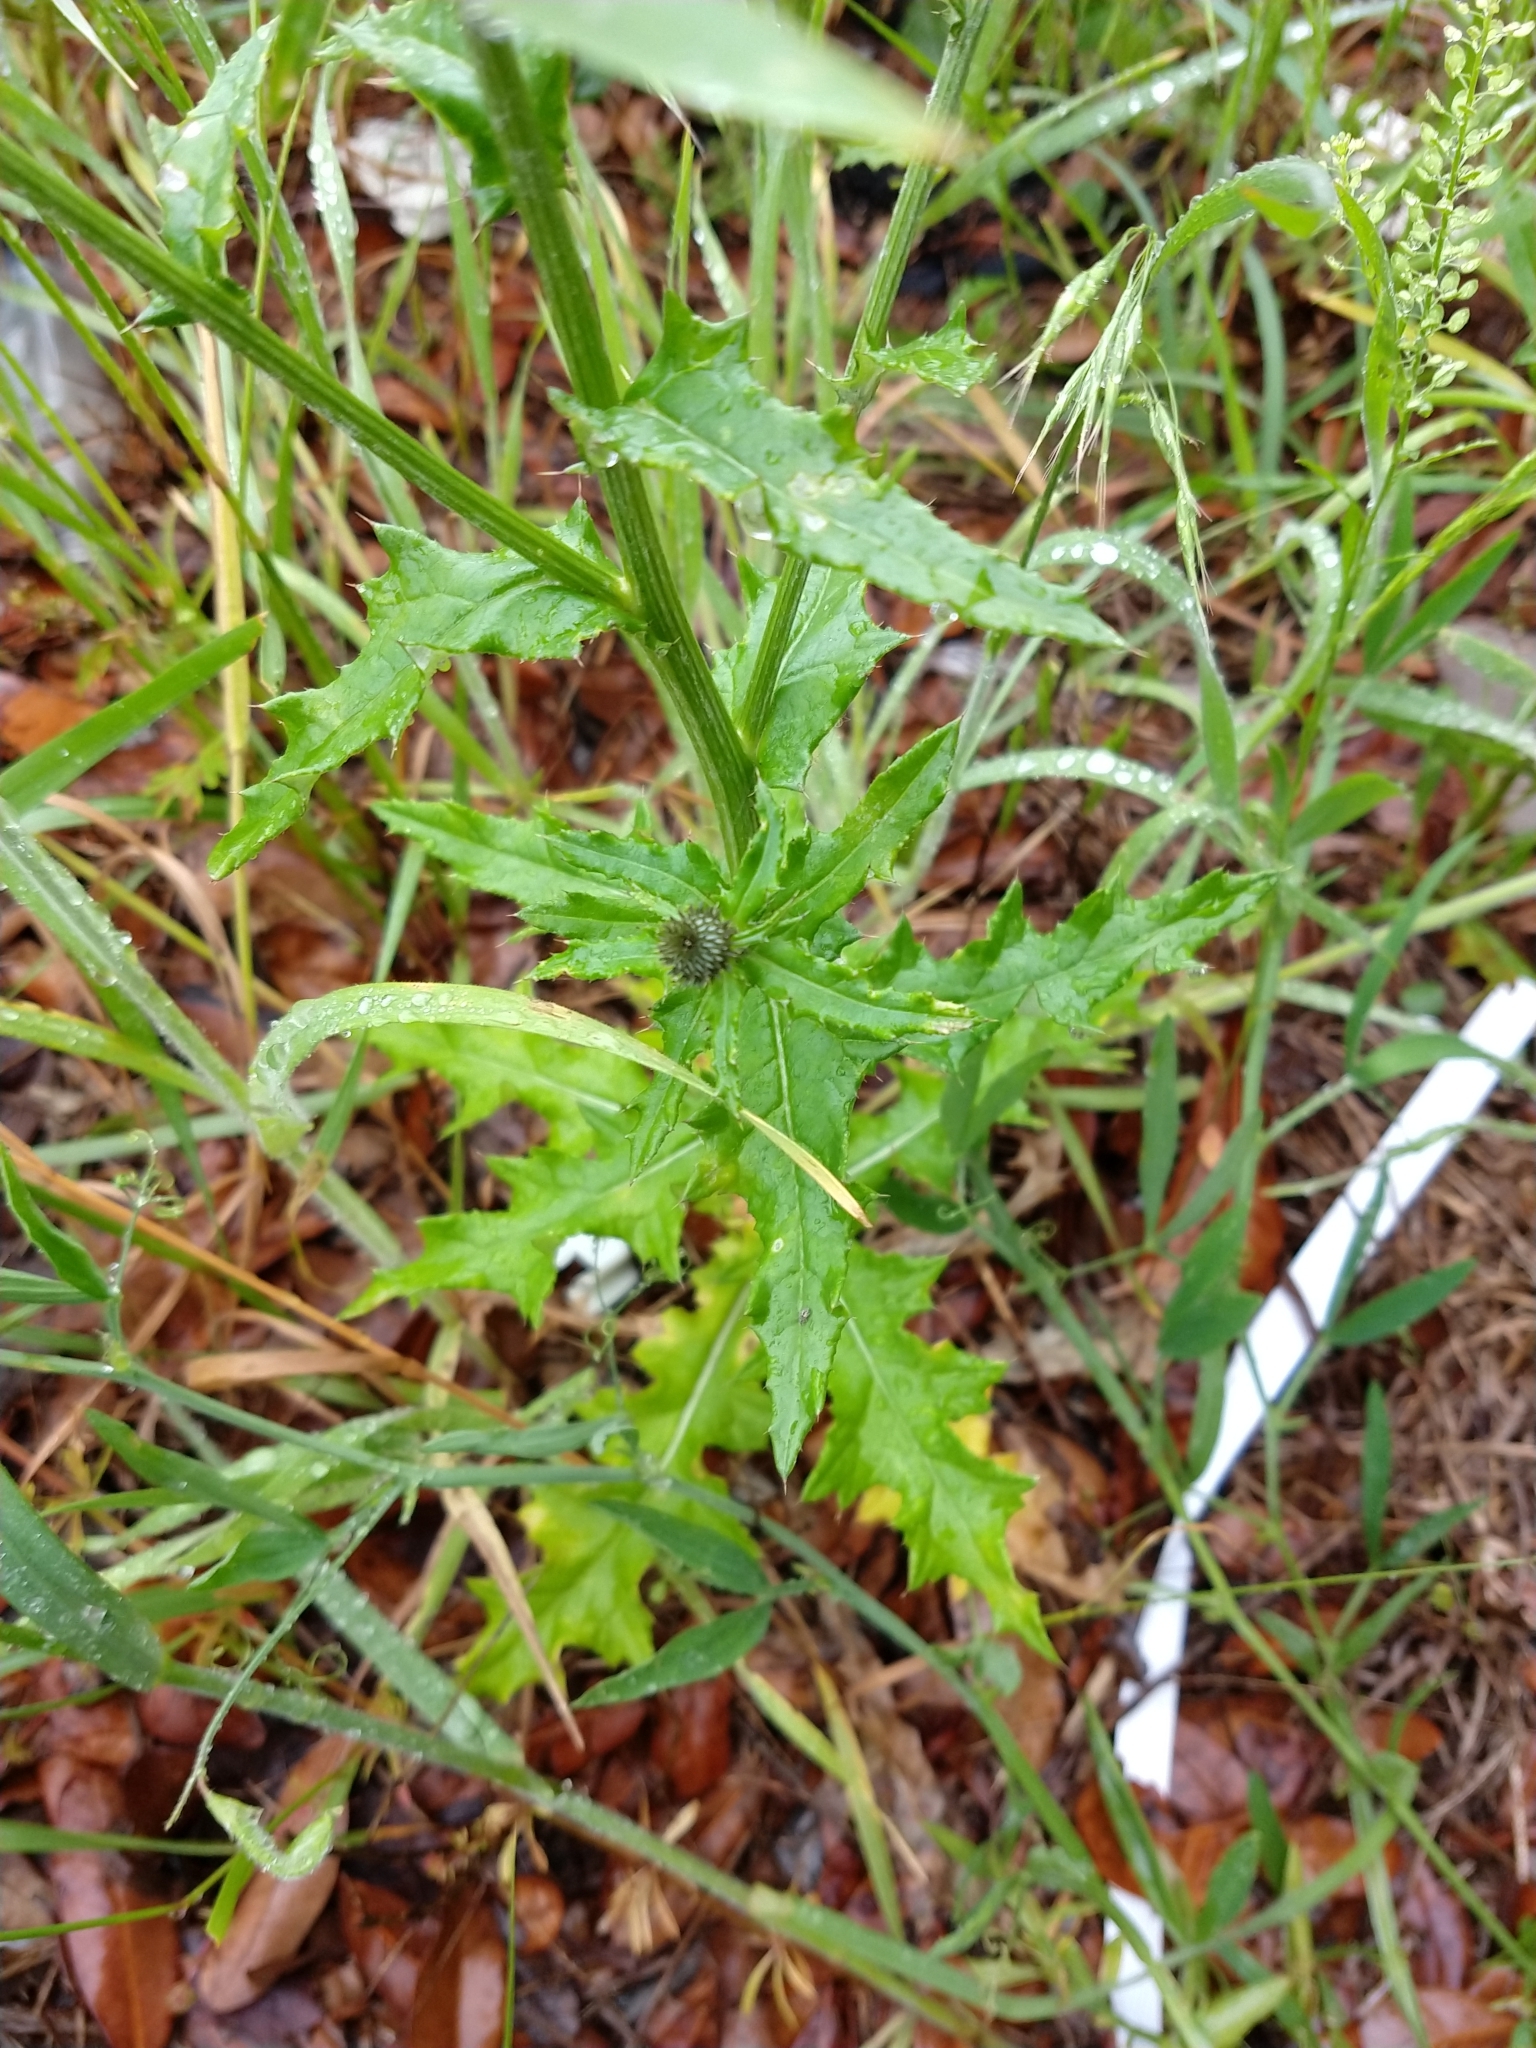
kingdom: Plantae
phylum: Tracheophyta
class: Magnoliopsida
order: Asterales
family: Asteraceae
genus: Cirsium
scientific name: Cirsium texanum
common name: Texas purple thistle
